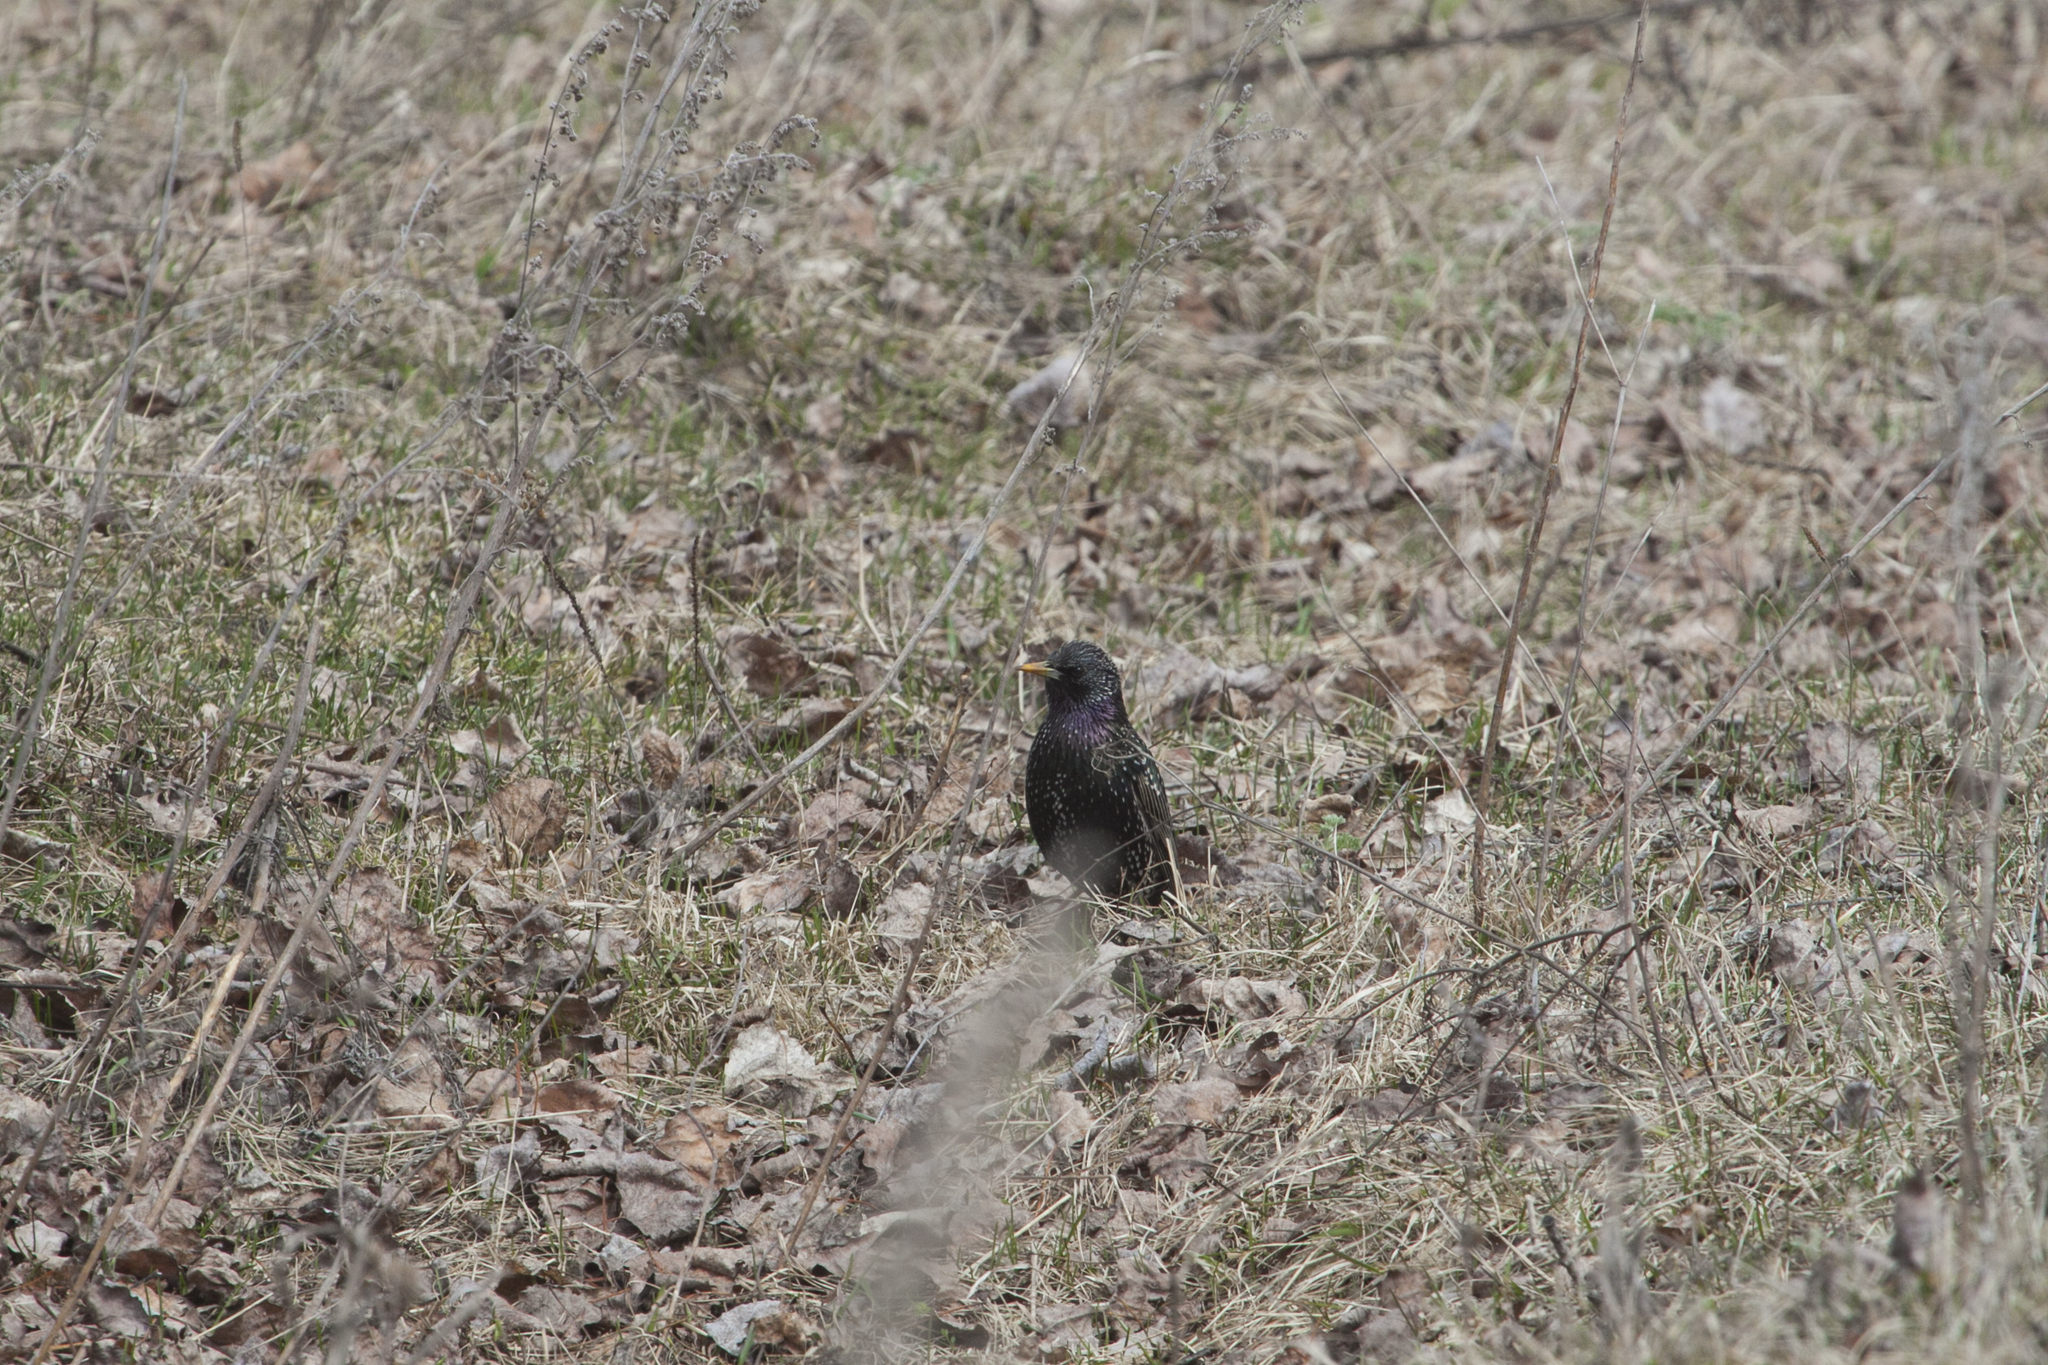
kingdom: Animalia
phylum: Chordata
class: Aves
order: Passeriformes
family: Sturnidae
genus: Sturnus
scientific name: Sturnus vulgaris
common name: Common starling
